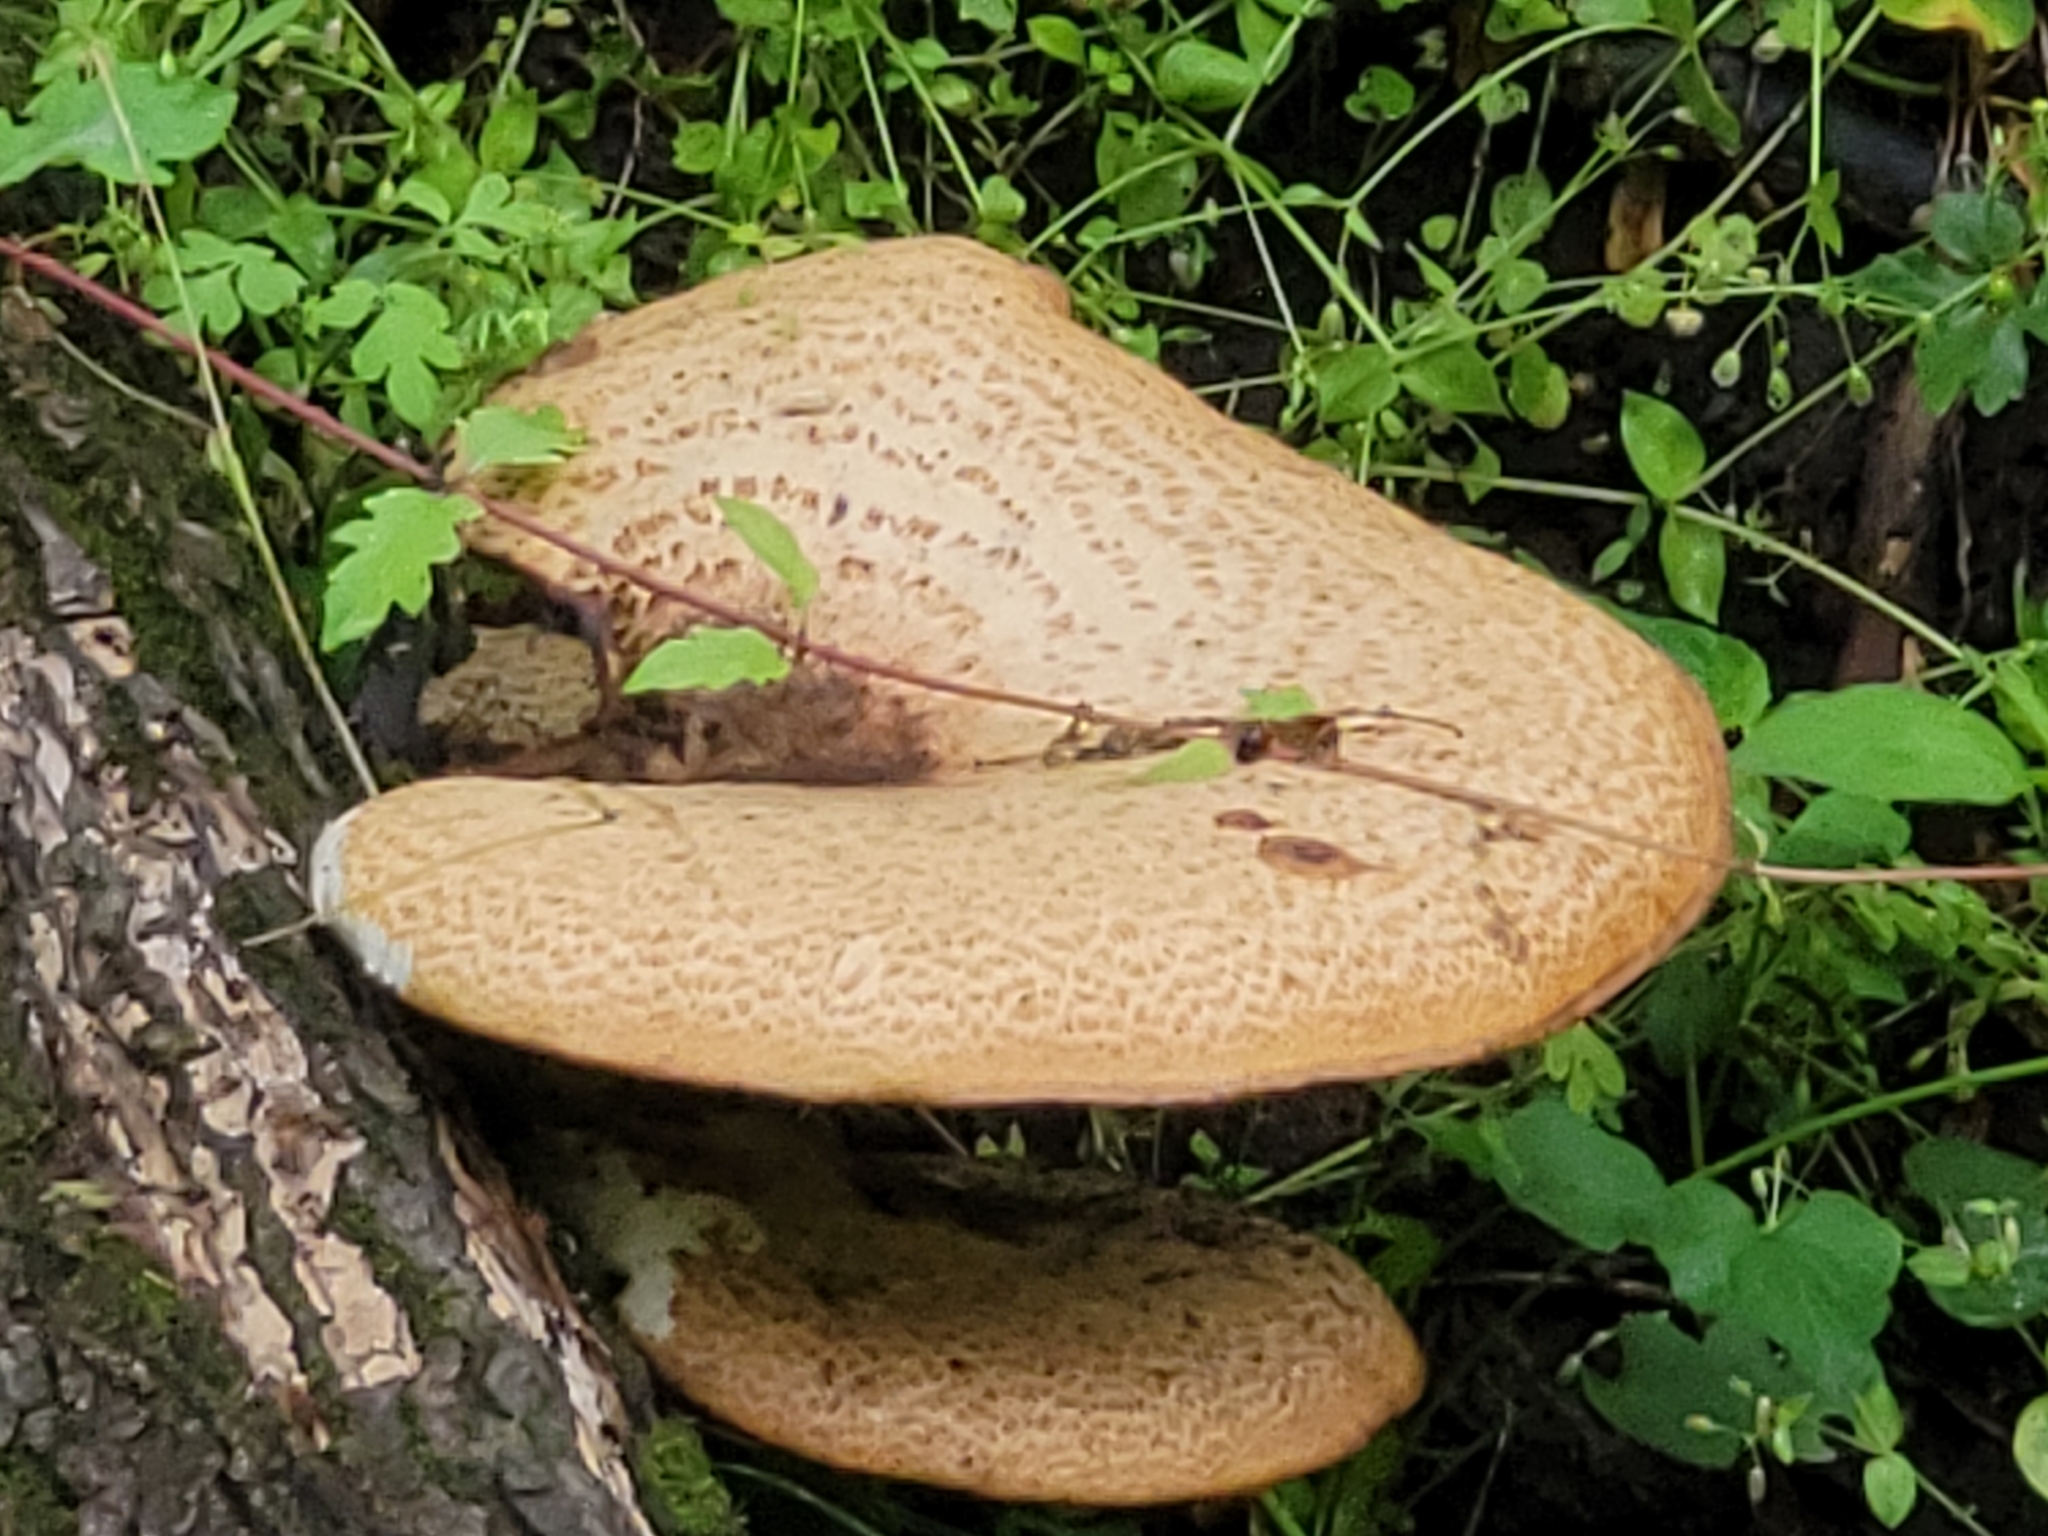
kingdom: Fungi
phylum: Basidiomycota
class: Agaricomycetes
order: Polyporales
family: Polyporaceae
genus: Cerioporus
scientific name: Cerioporus squamosus
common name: Dryad's saddle
